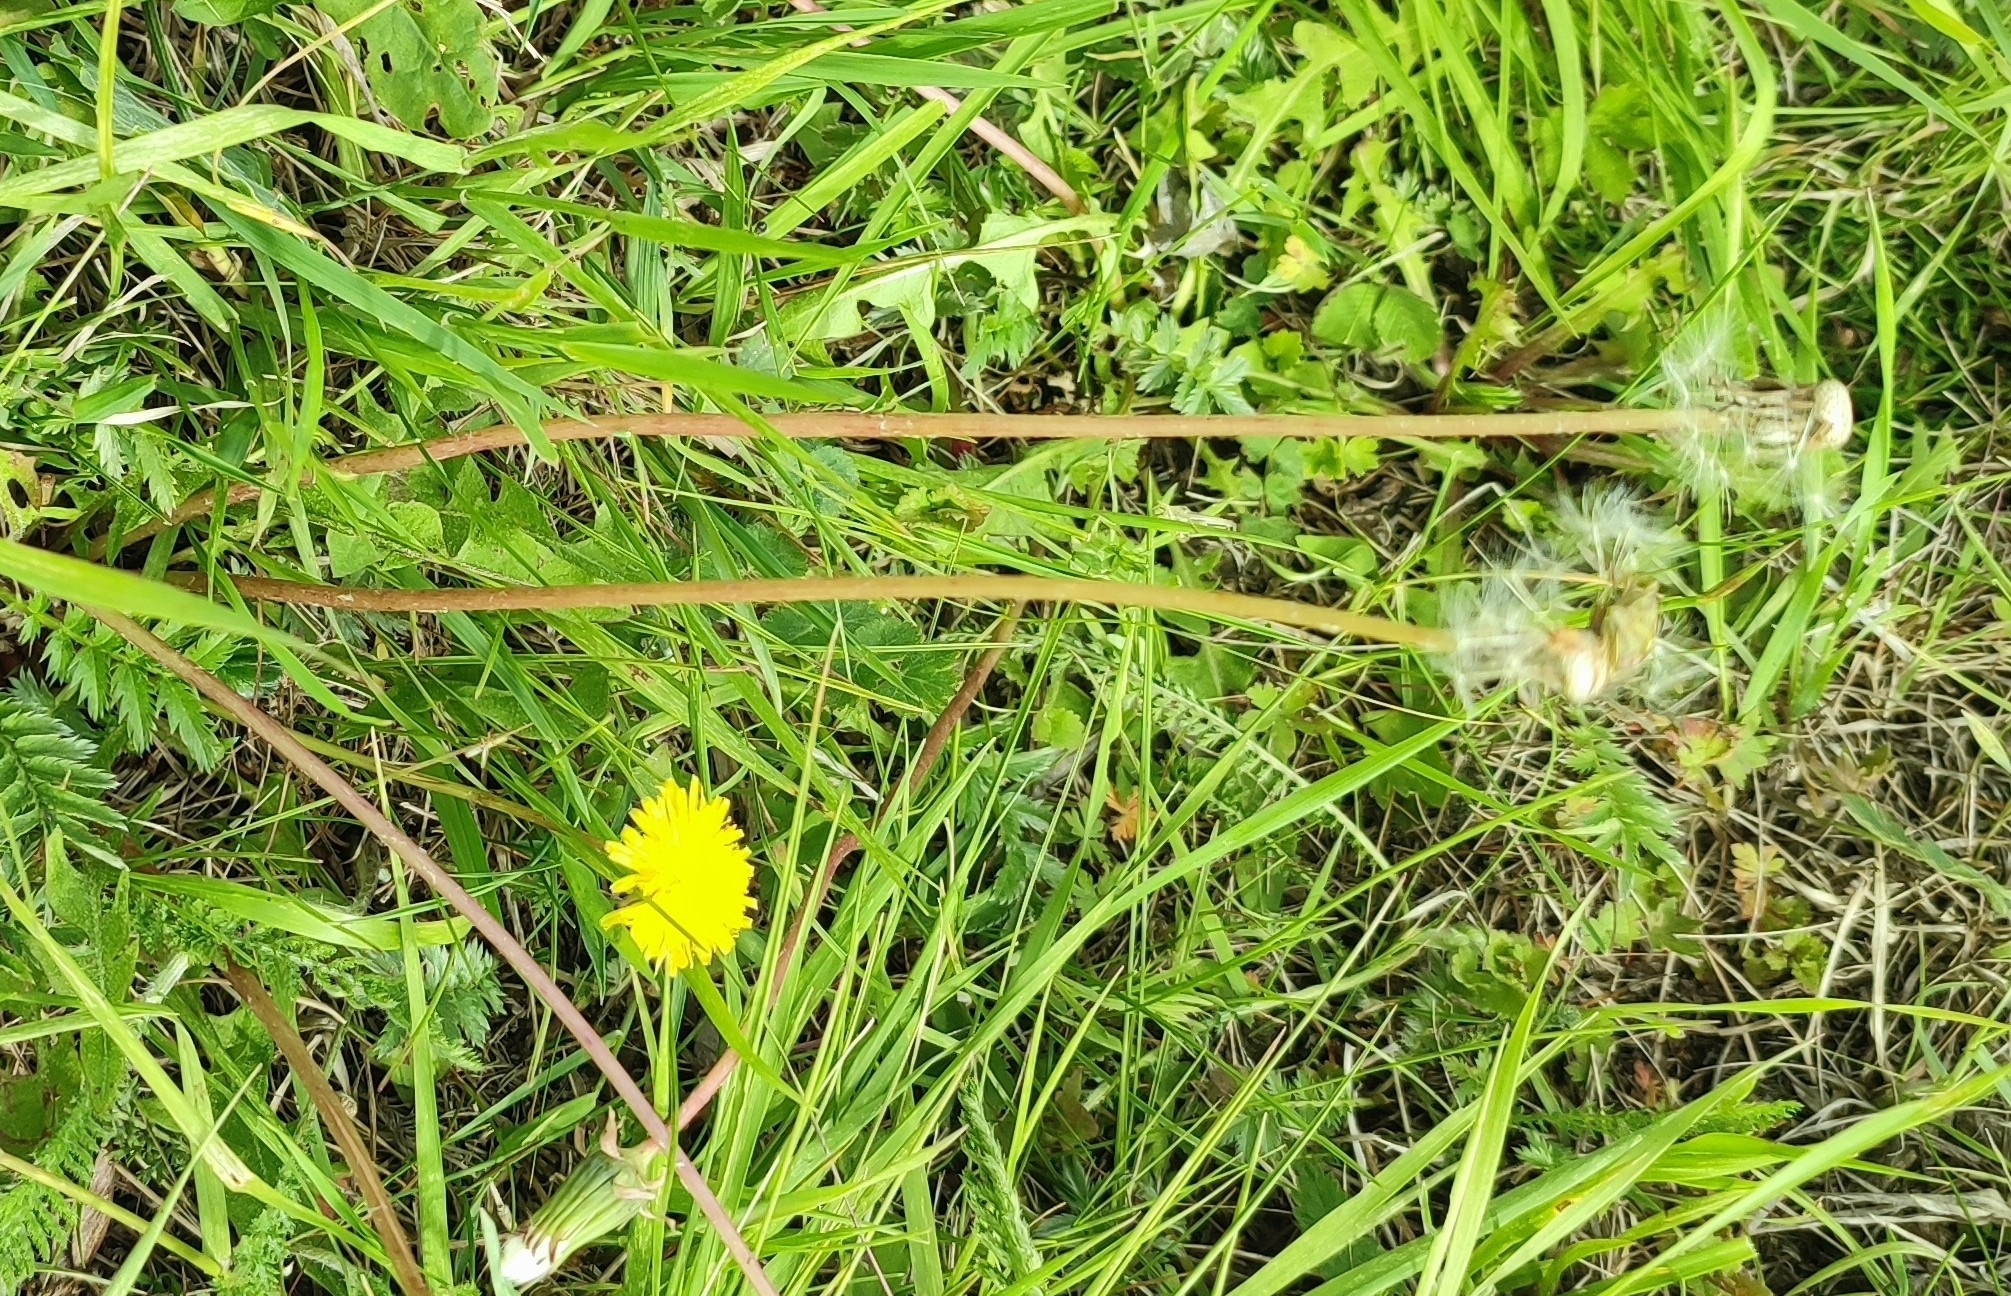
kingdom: Plantae
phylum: Tracheophyta
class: Magnoliopsida
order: Asterales
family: Asteraceae
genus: Taraxacum
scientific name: Taraxacum officinale
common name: Common dandelion
